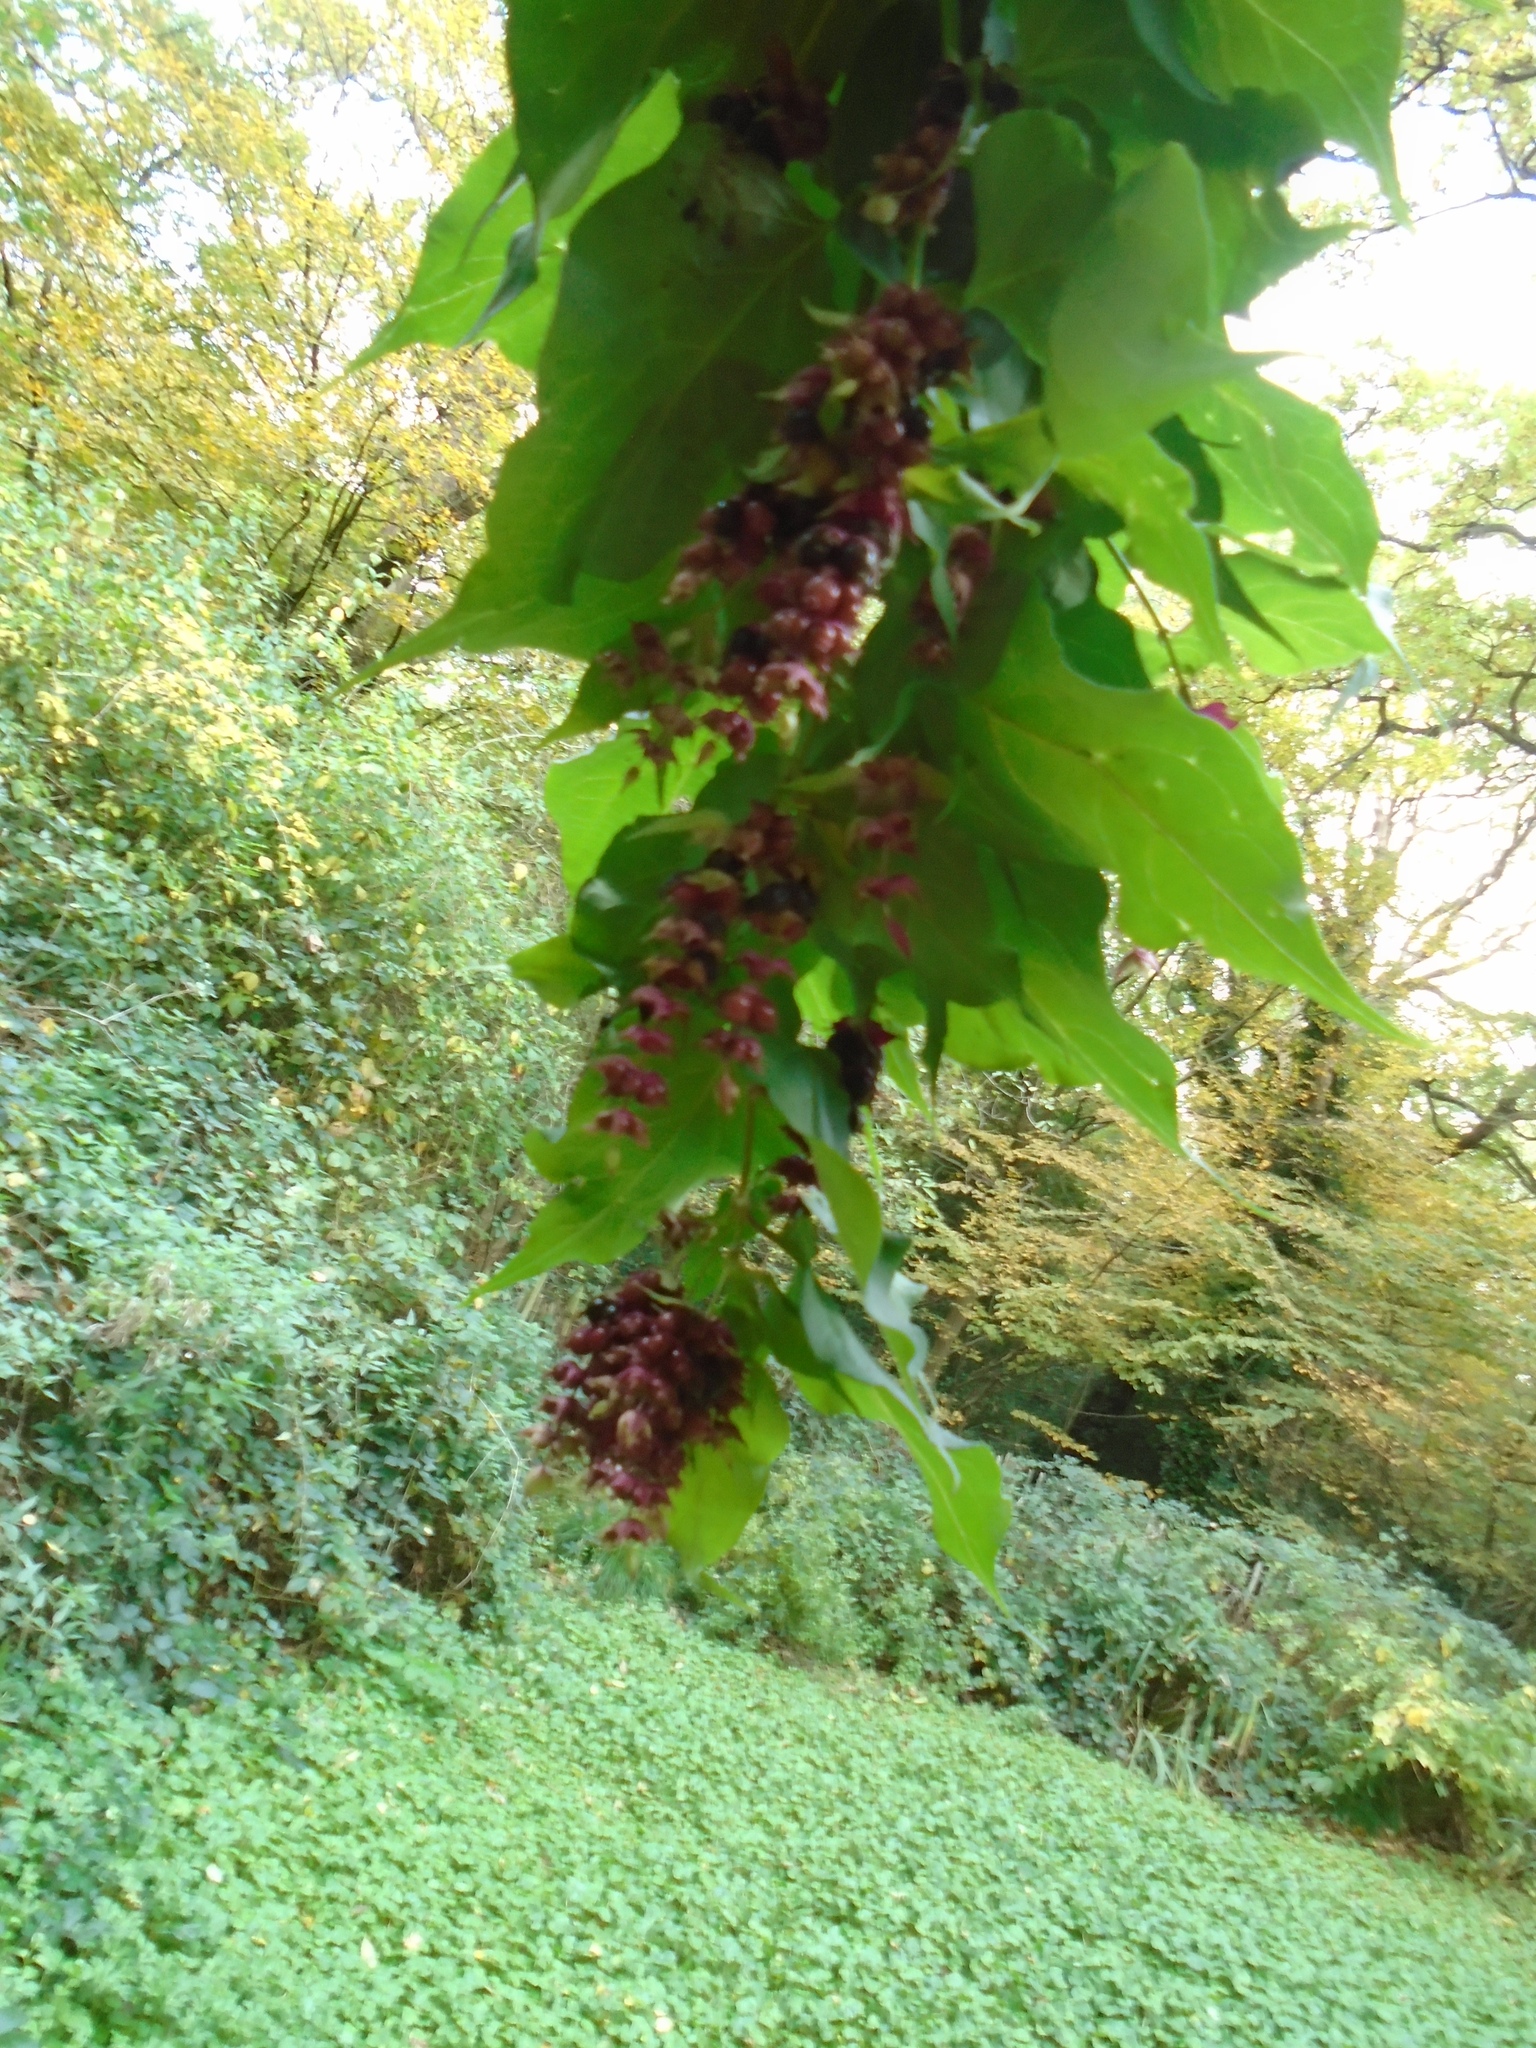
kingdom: Plantae
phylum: Tracheophyta
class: Magnoliopsida
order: Dipsacales
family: Caprifoliaceae
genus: Leycesteria
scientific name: Leycesteria formosa
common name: Himalayan honeysuckle
